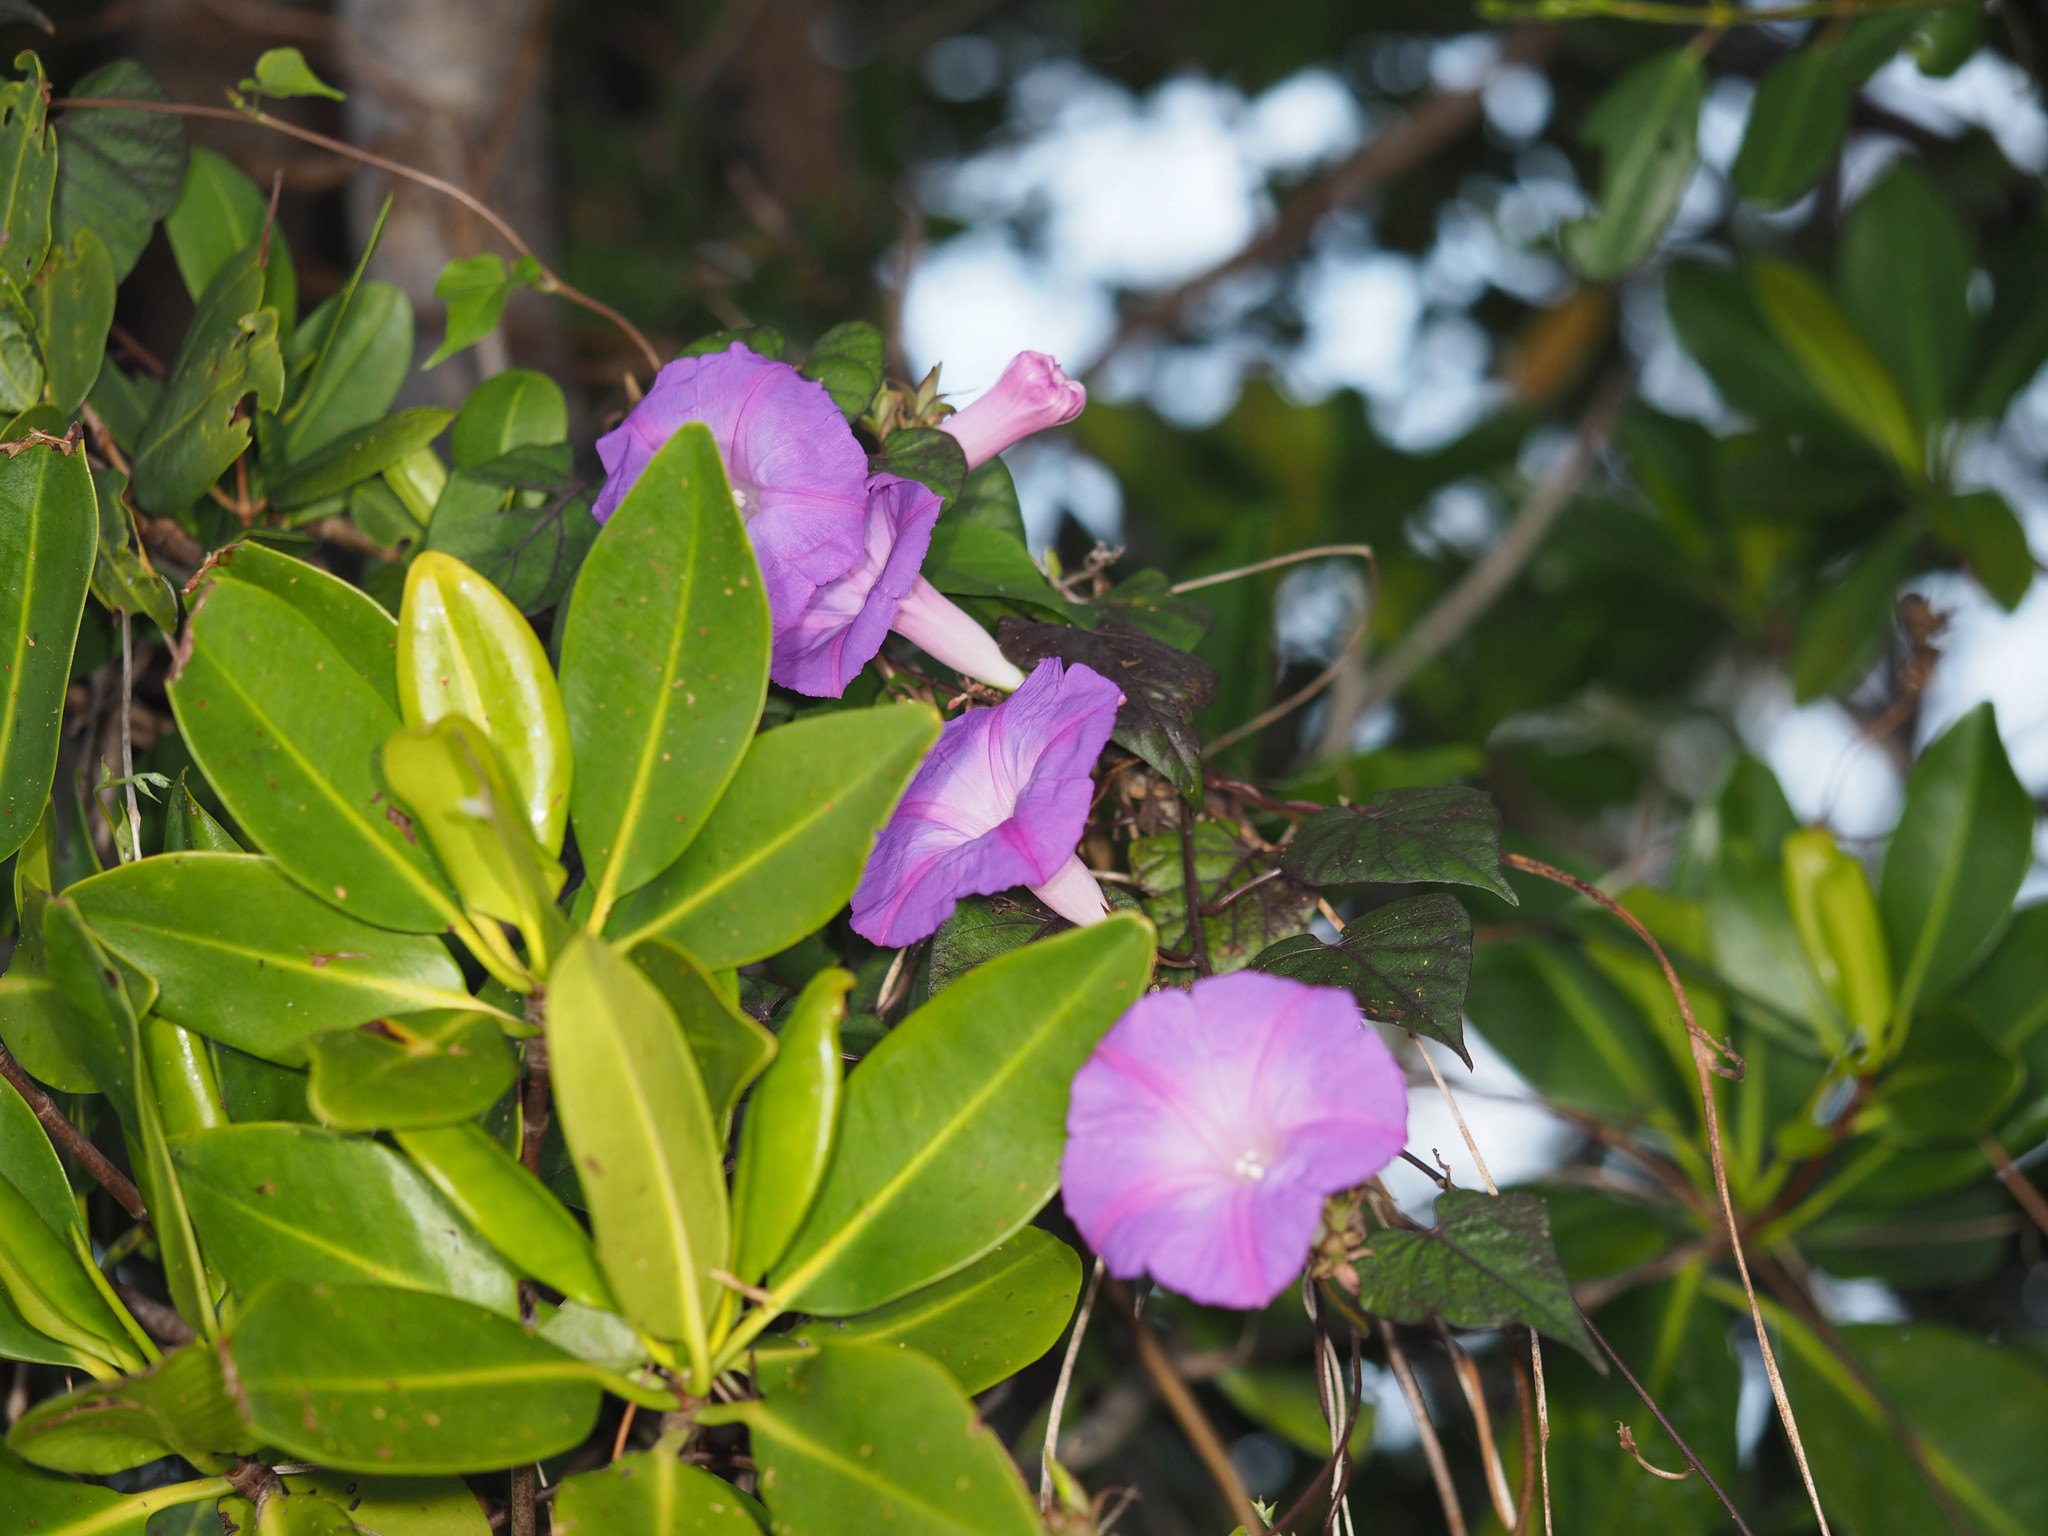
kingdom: Plantae
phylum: Tracheophyta
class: Magnoliopsida
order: Solanales
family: Convolvulaceae
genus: Ipomoea
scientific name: Ipomoea indica
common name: Blue dawnflower
